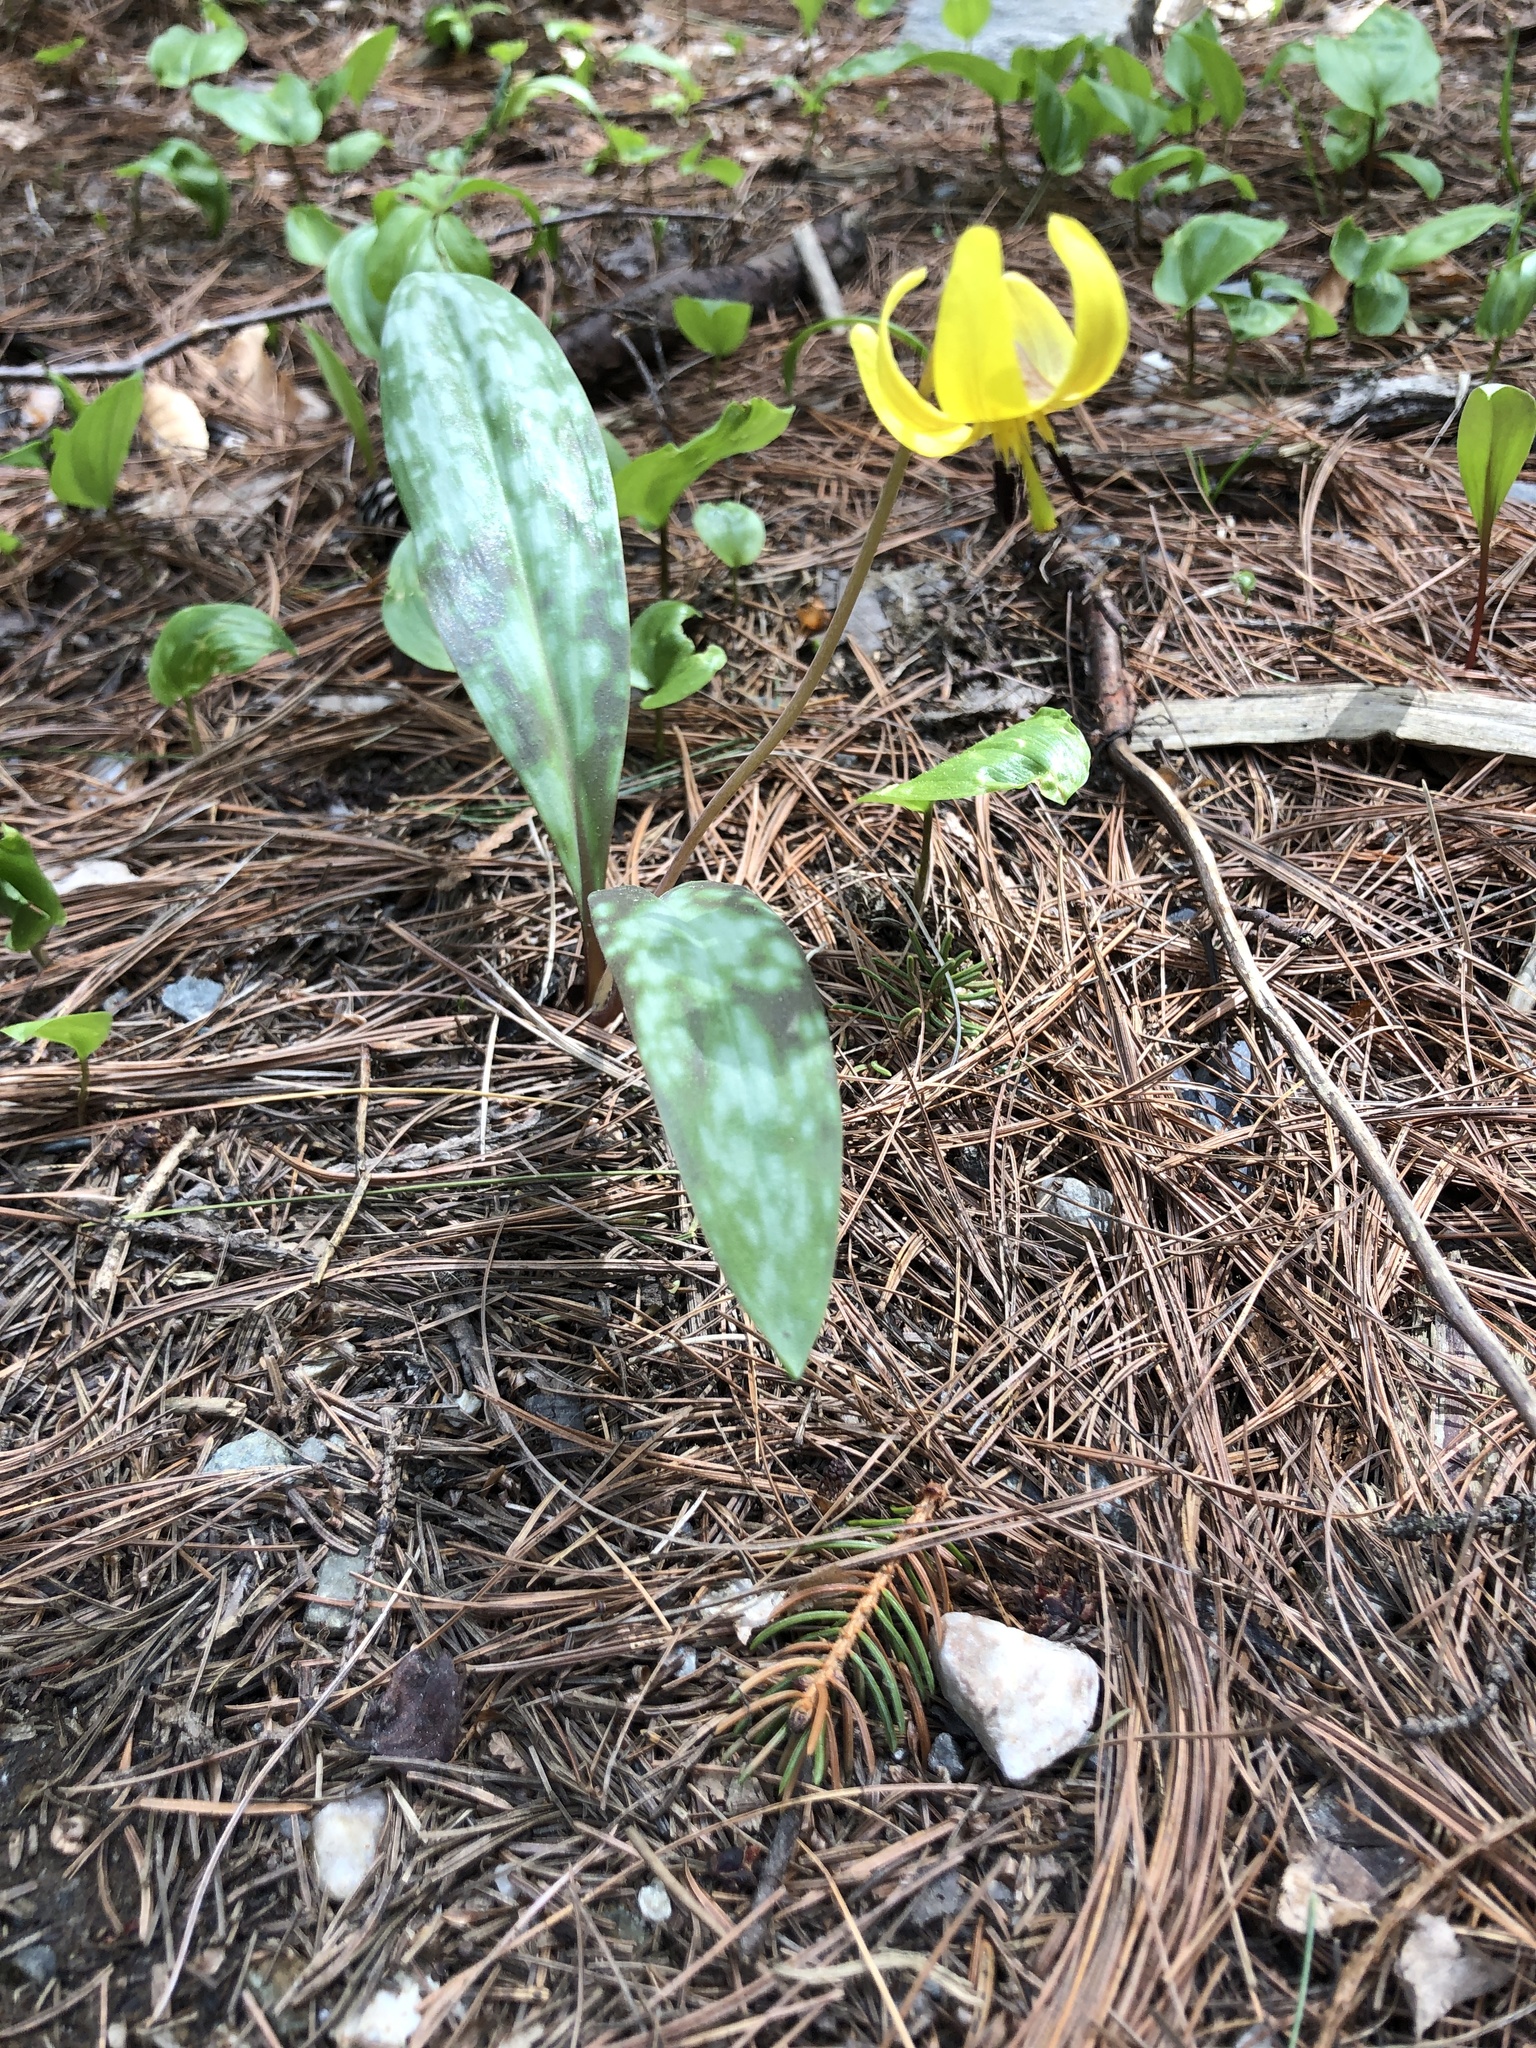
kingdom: Plantae
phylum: Tracheophyta
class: Liliopsida
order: Liliales
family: Liliaceae
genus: Erythronium
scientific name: Erythronium americanum
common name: Yellow adder's-tongue
